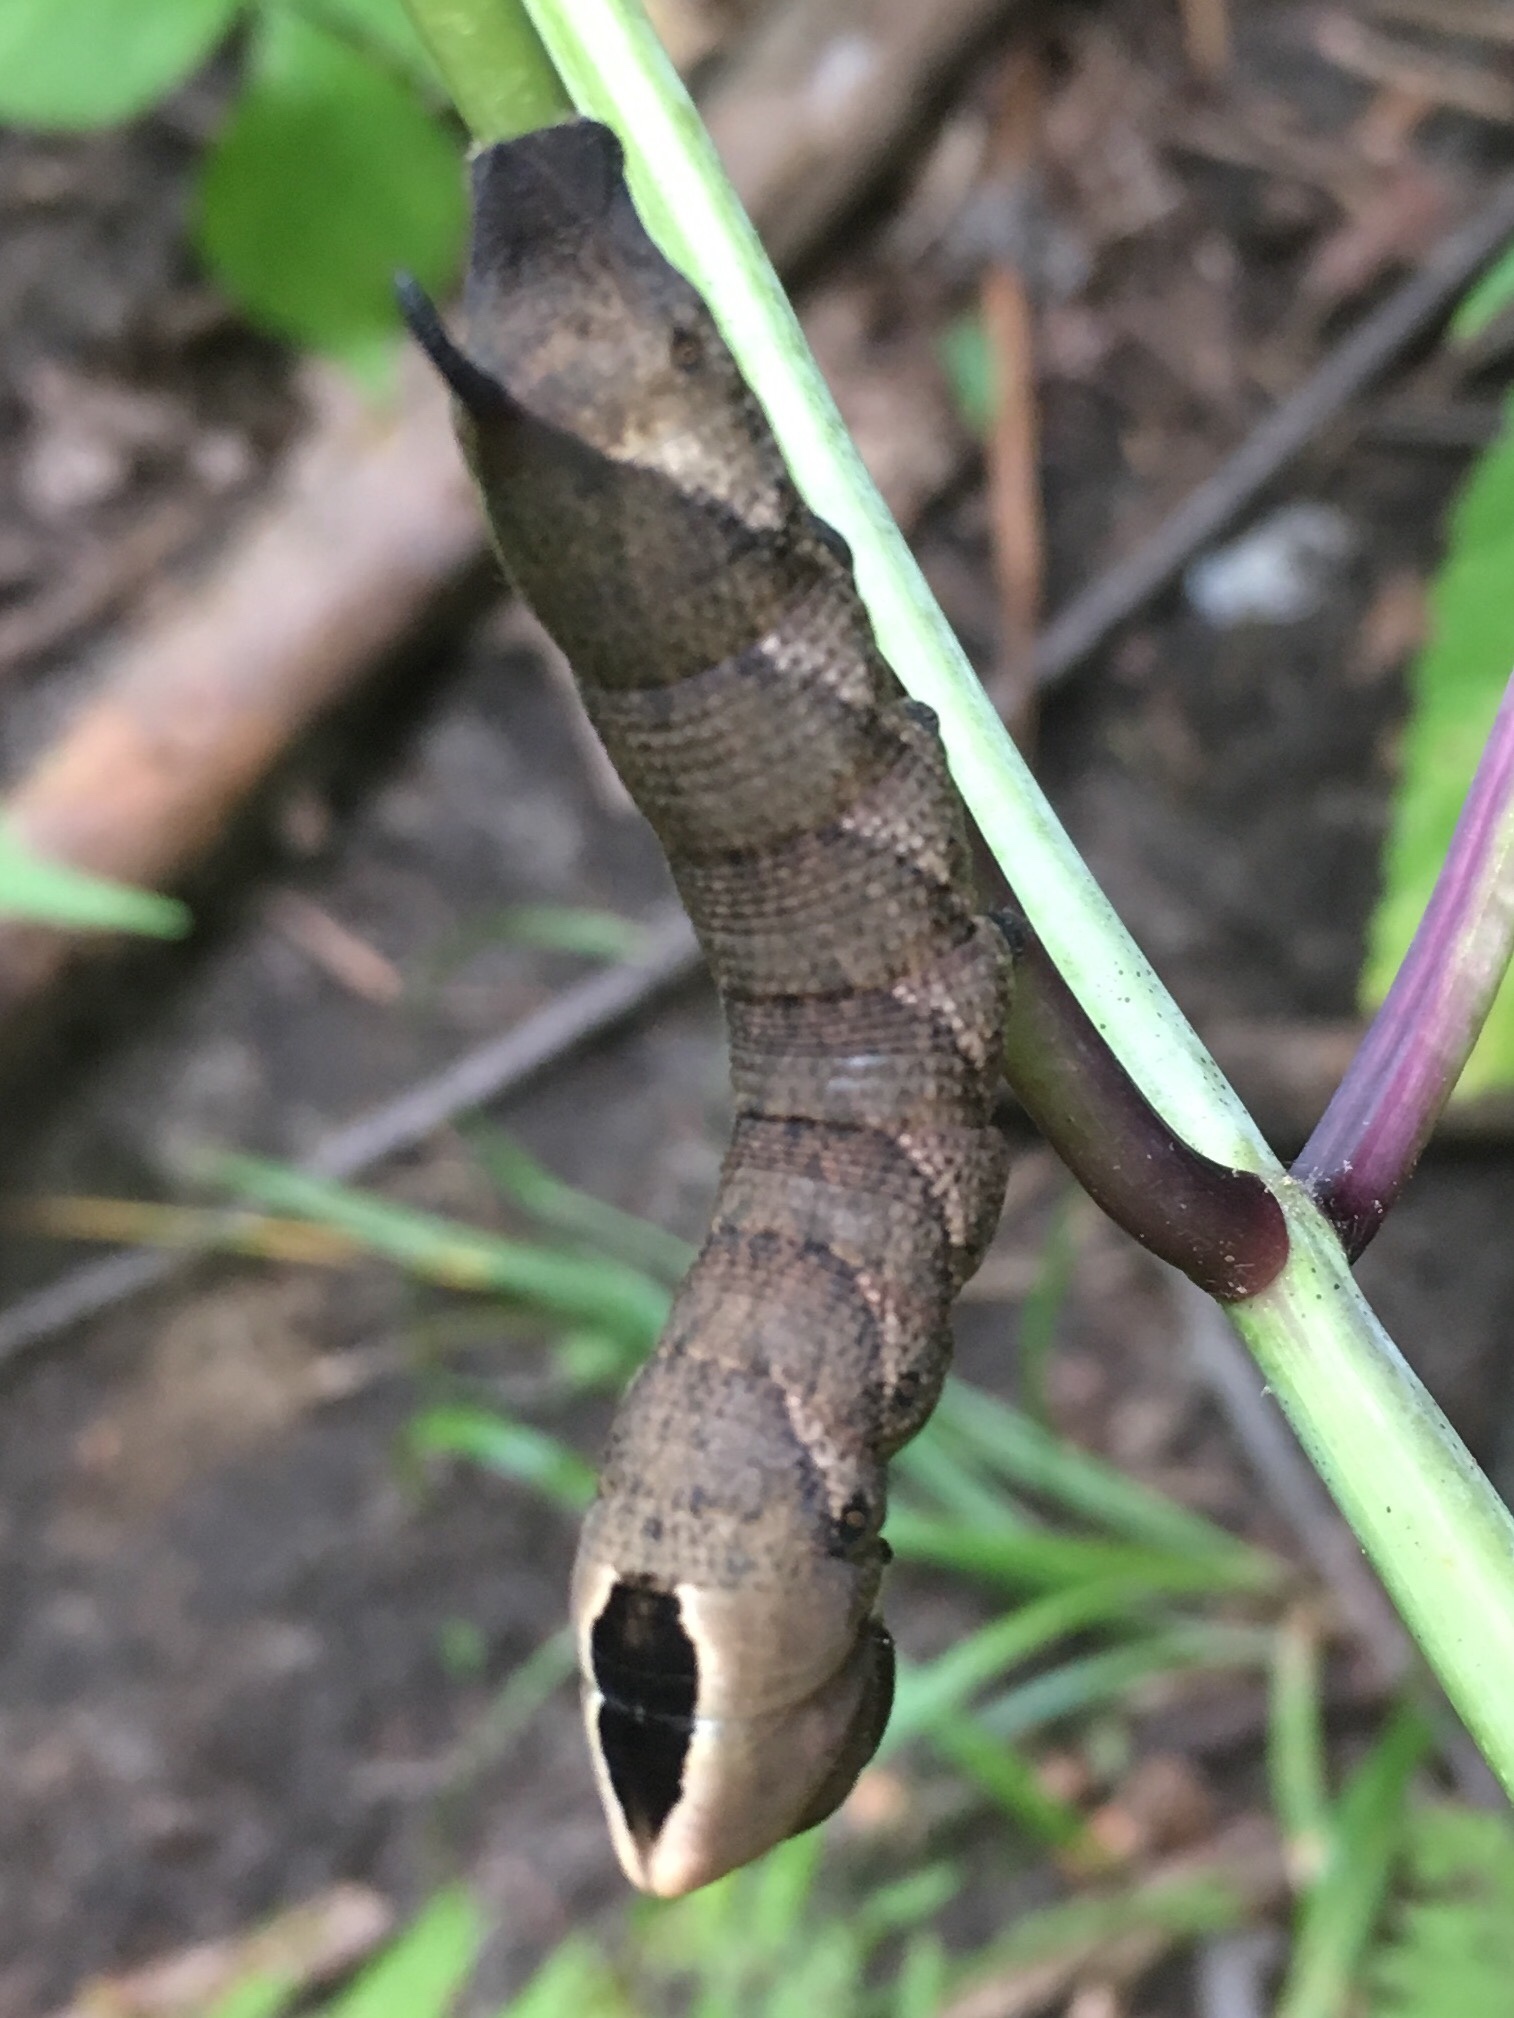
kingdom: Animalia
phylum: Arthropoda
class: Insecta
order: Lepidoptera
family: Sphingidae
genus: Lintneria
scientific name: Lintneria eremitus
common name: Hermit sphinx
